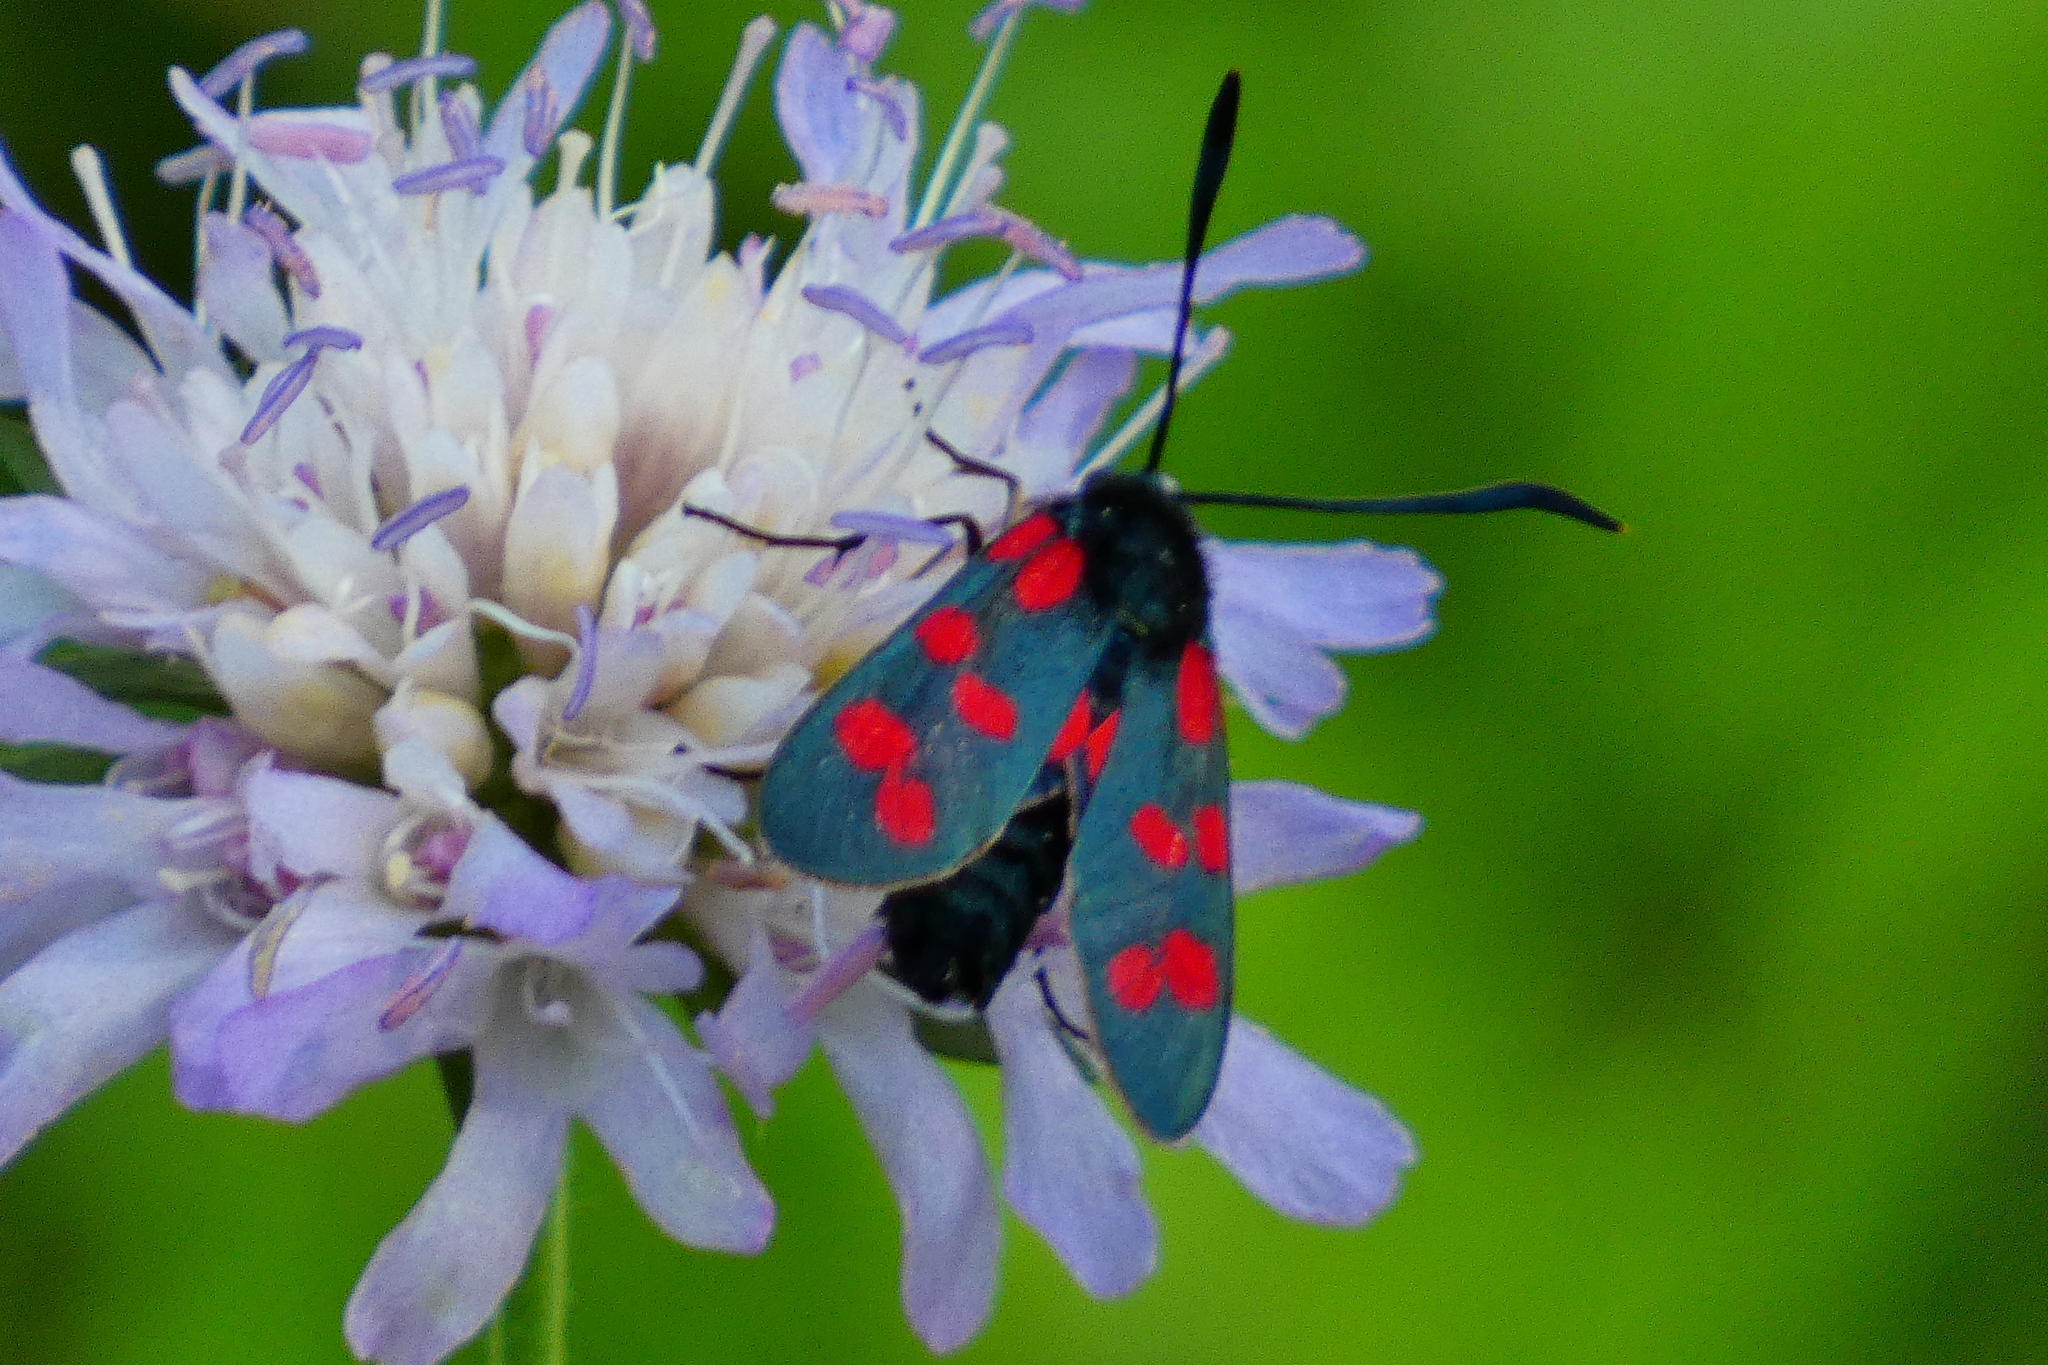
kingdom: Animalia
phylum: Arthropoda
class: Insecta
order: Lepidoptera
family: Zygaenidae
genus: Zygaena
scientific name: Zygaena transalpina
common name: Southern six spot burnet
